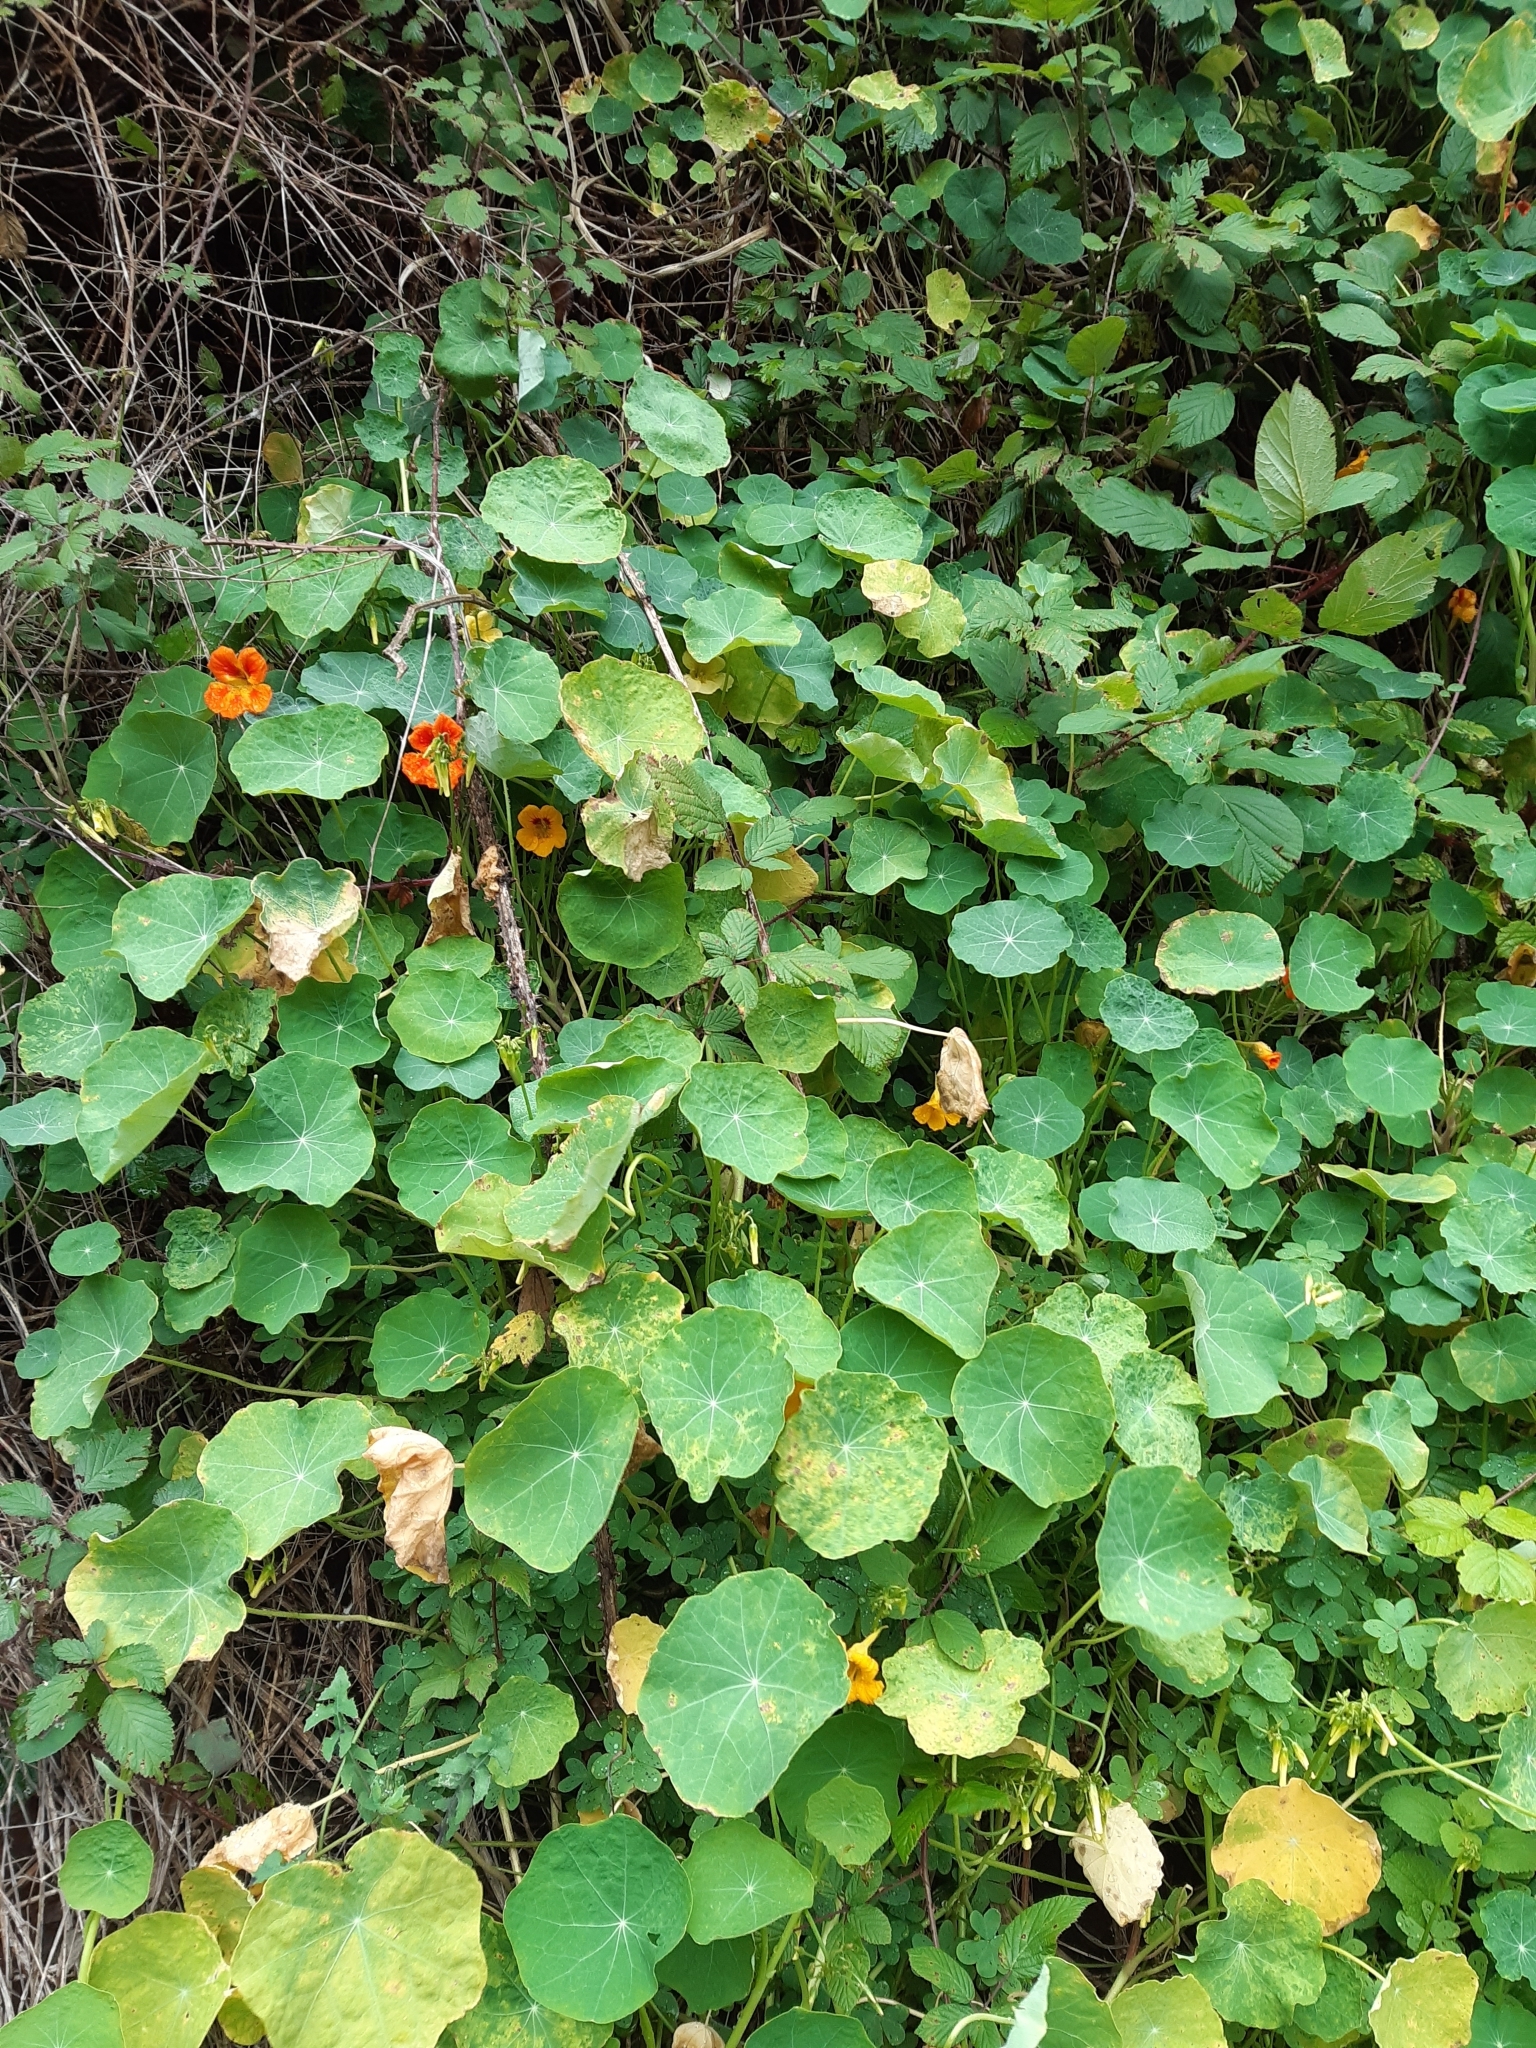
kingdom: Plantae
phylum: Tracheophyta
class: Magnoliopsida
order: Brassicales
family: Tropaeolaceae
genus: Tropaeolum
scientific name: Tropaeolum majus
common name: Nasturtium
